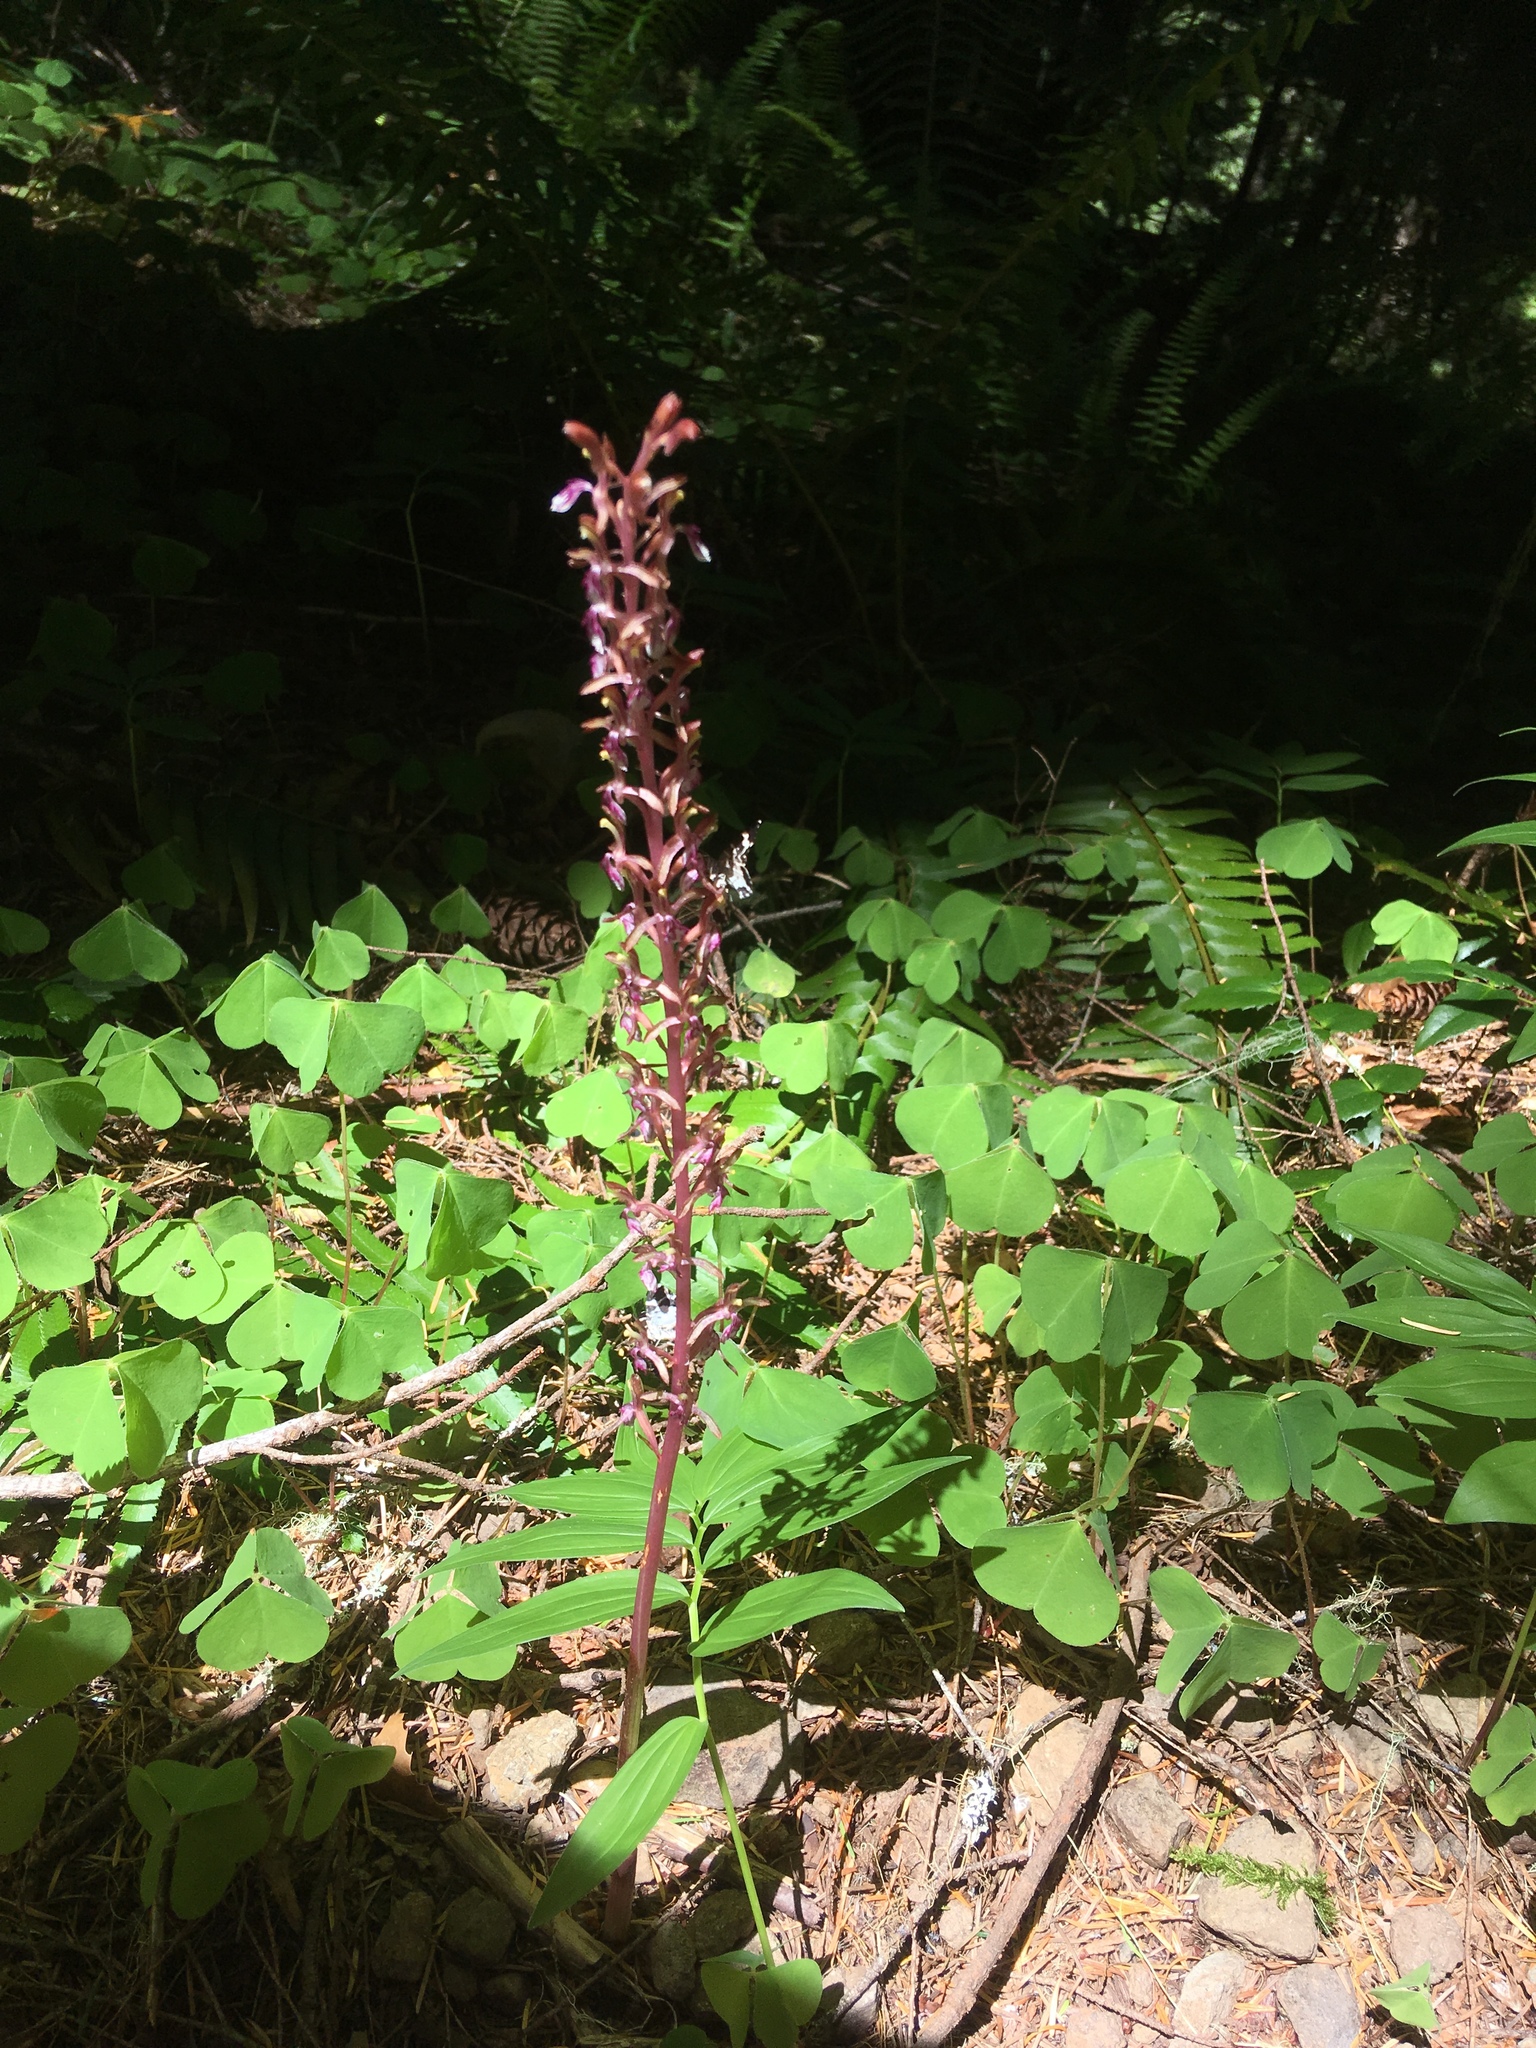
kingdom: Plantae
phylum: Tracheophyta
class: Liliopsida
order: Asparagales
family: Orchidaceae
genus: Corallorhiza
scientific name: Corallorhiza mertensiana
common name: Pacific coralroot
